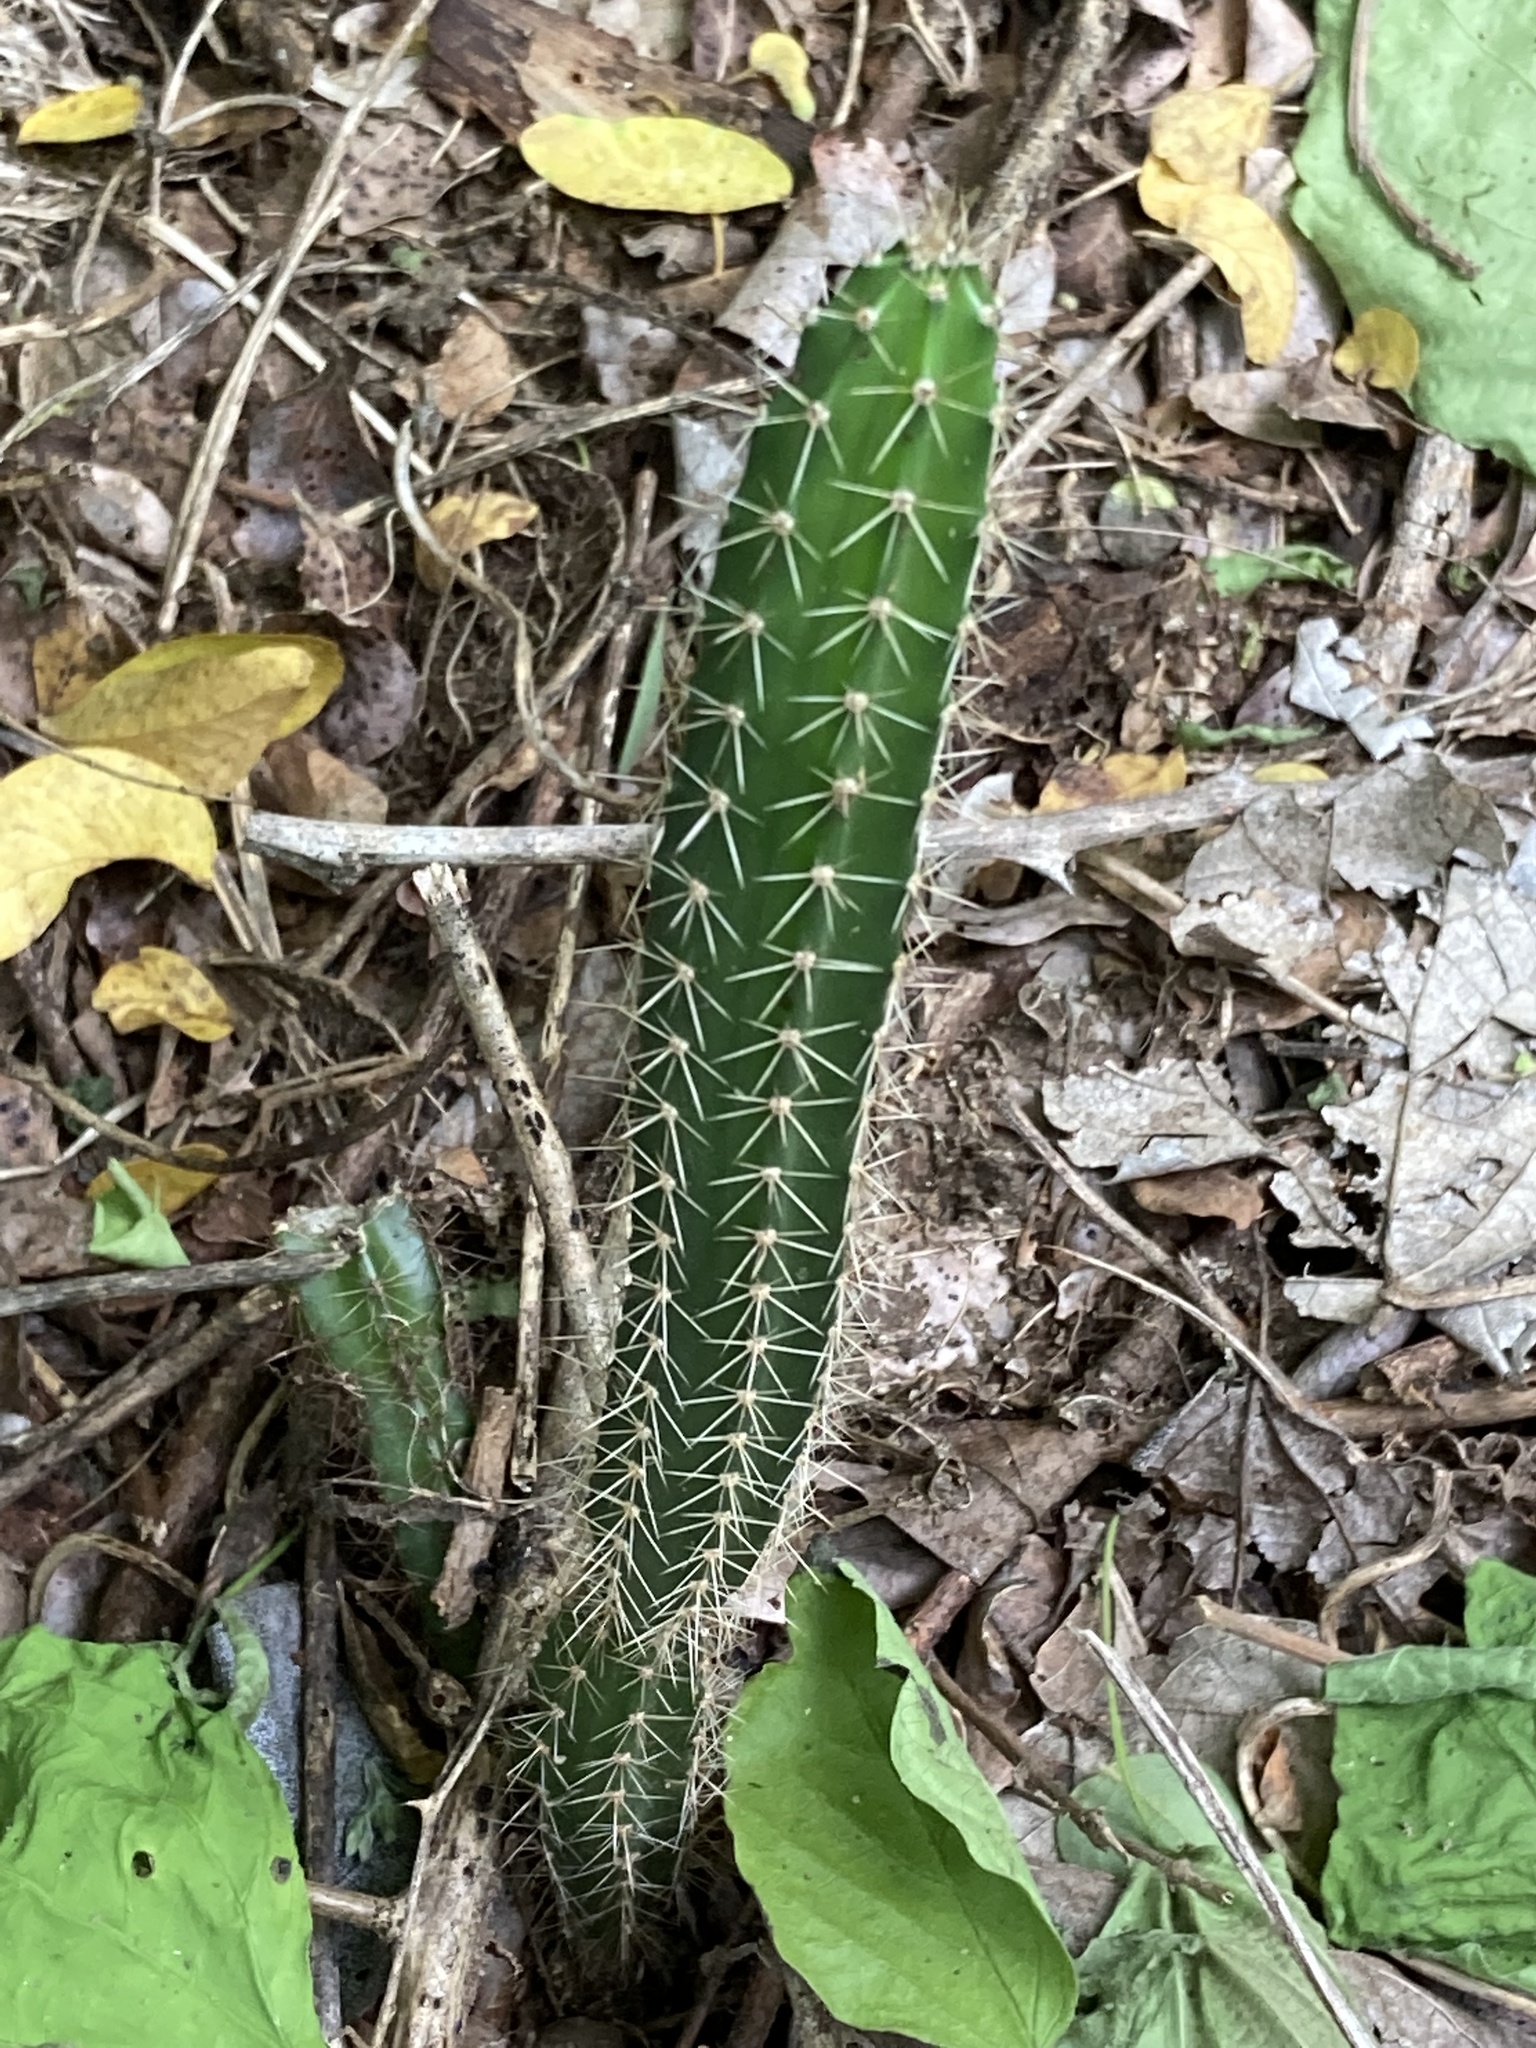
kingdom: Plantae
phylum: Tracheophyta
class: Magnoliopsida
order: Caryophyllales
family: Cactaceae
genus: Acanthocereus
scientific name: Acanthocereus tetragonus
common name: Triangle cactus
